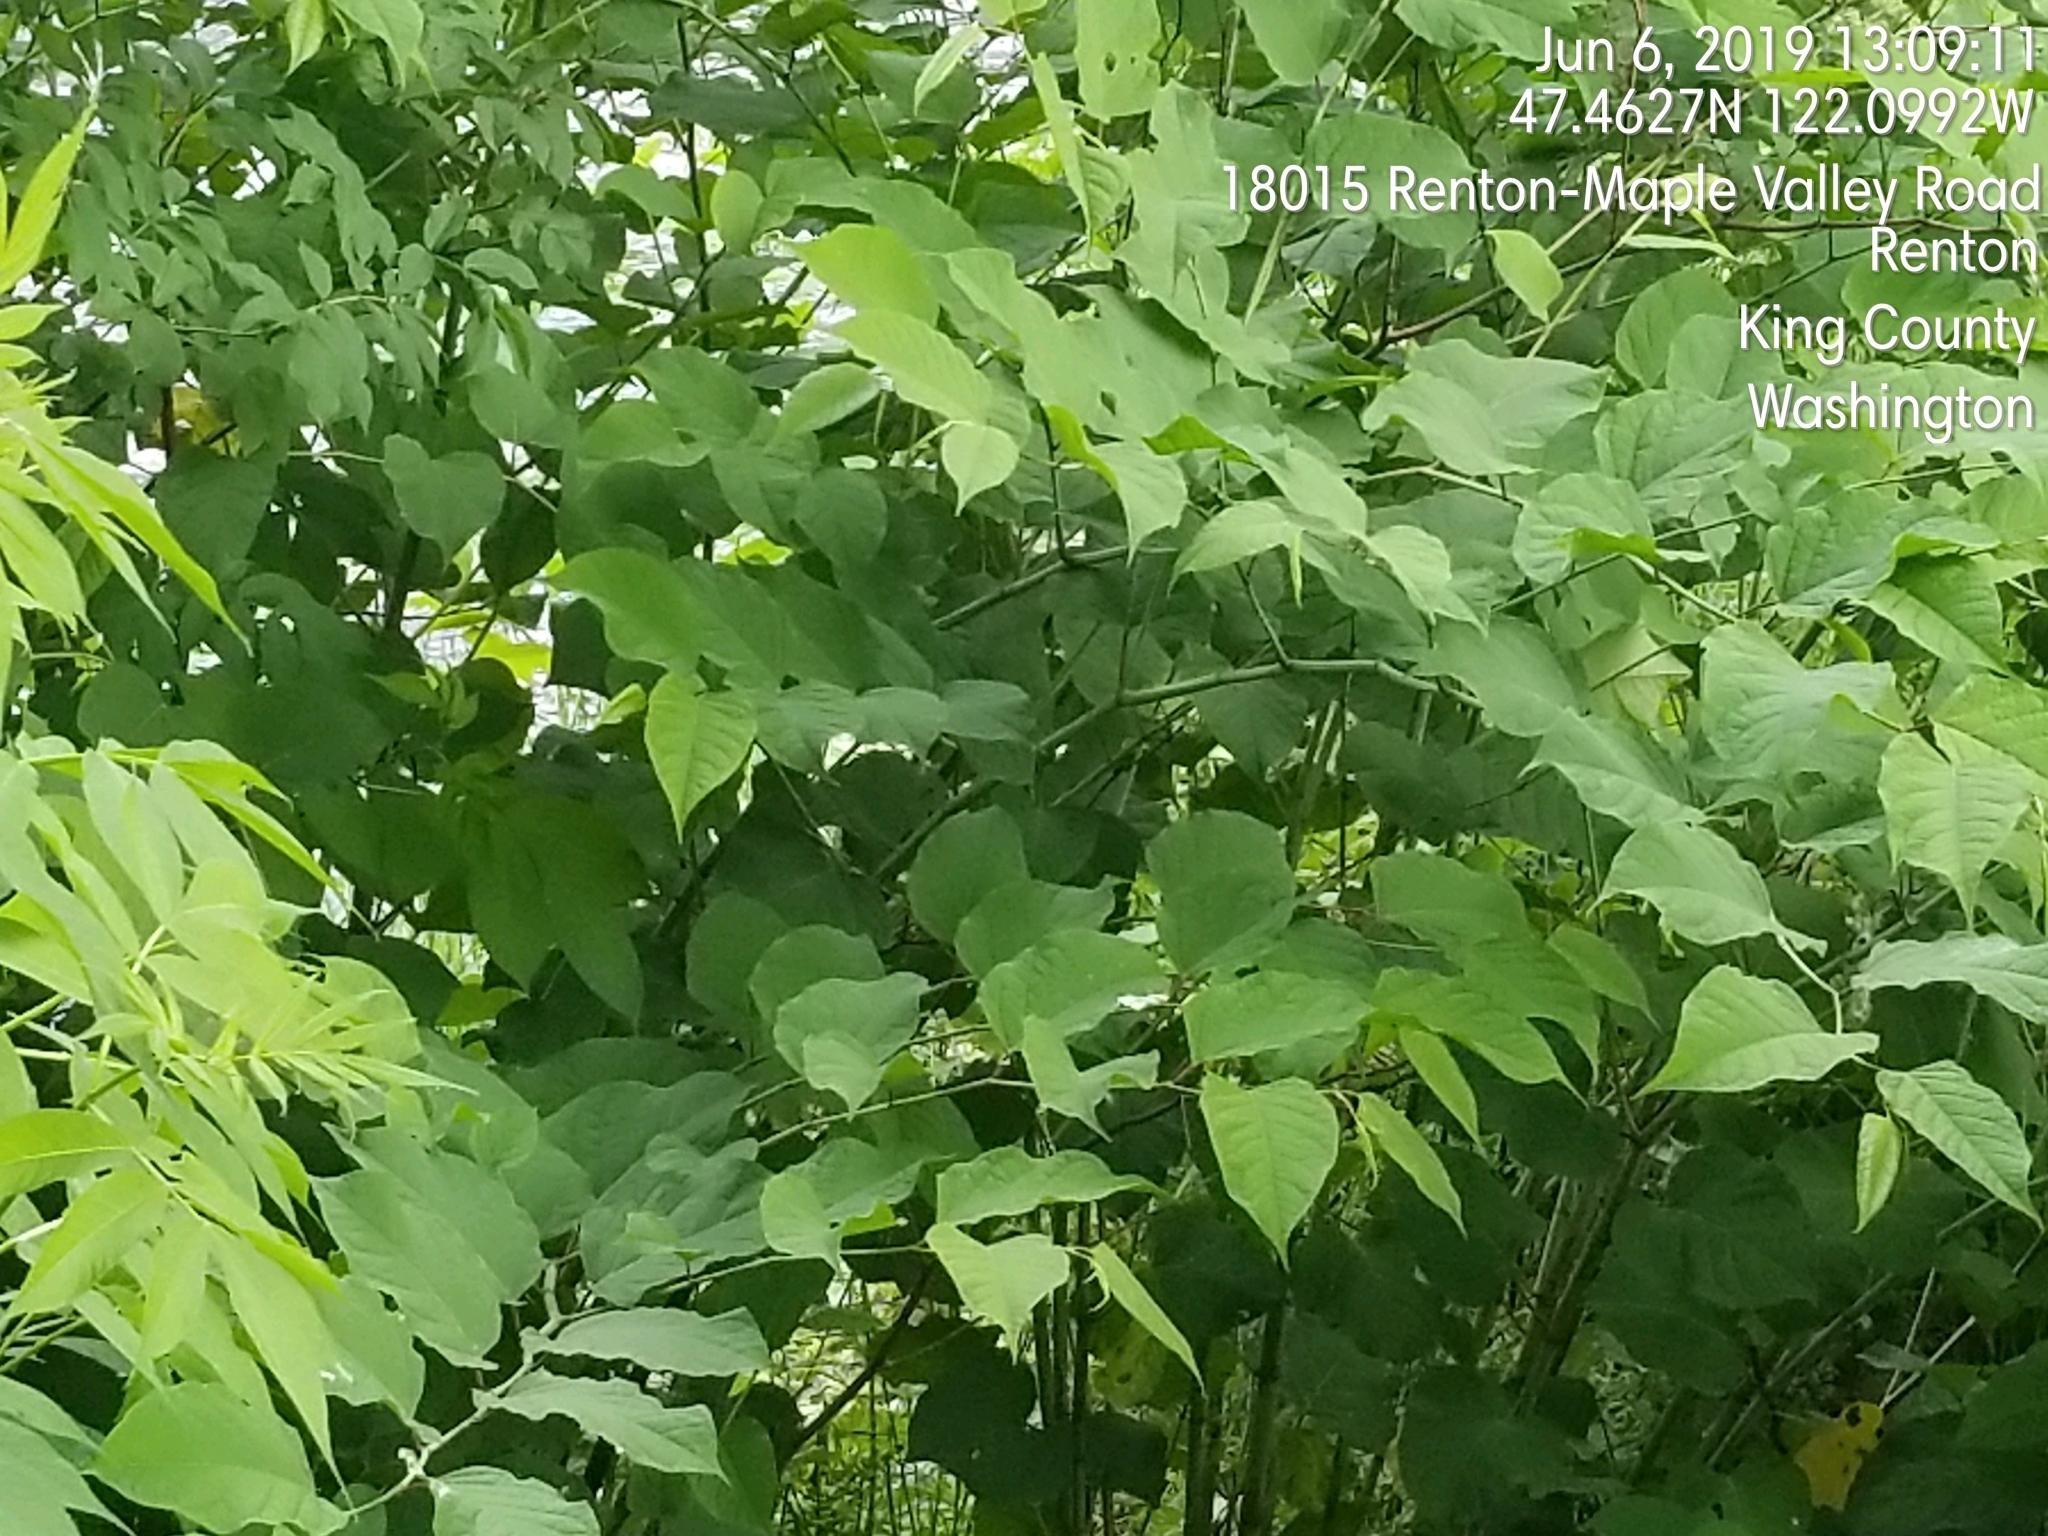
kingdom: Plantae
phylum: Tracheophyta
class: Magnoliopsida
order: Caryophyllales
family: Polygonaceae
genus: Reynoutria
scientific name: Reynoutria bohemica
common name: Bohemian knotweed
